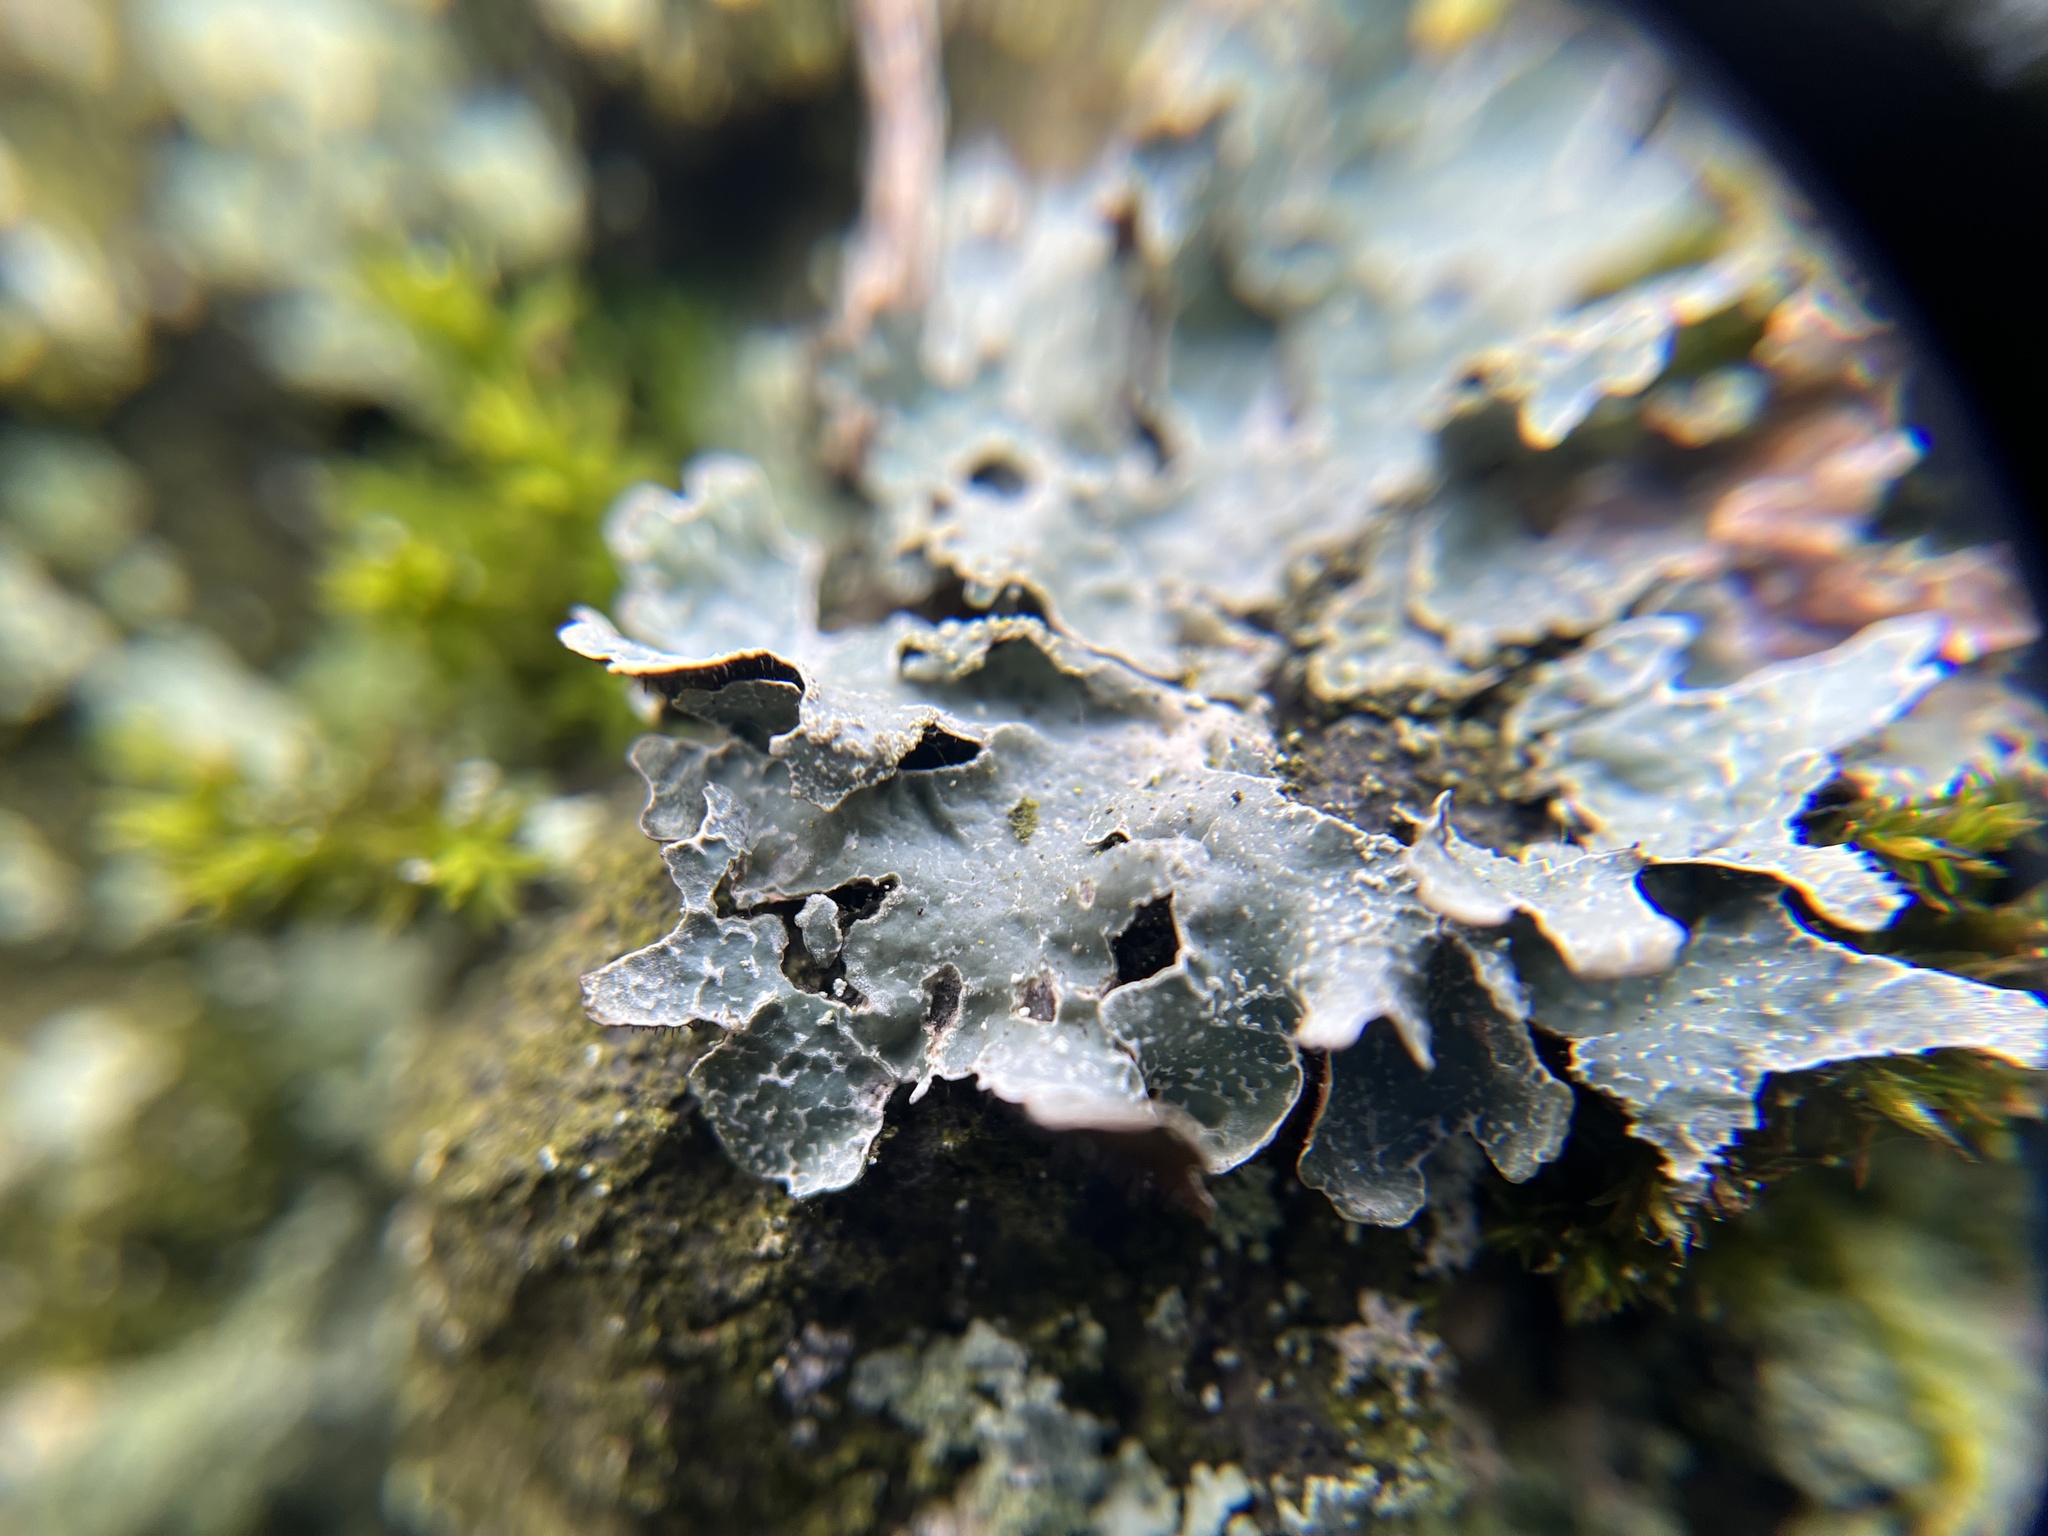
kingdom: Fungi
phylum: Ascomycota
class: Lecanoromycetes
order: Lecanorales
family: Parmeliaceae
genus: Parmelia
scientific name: Parmelia sulcata
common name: Netted shield lichen
